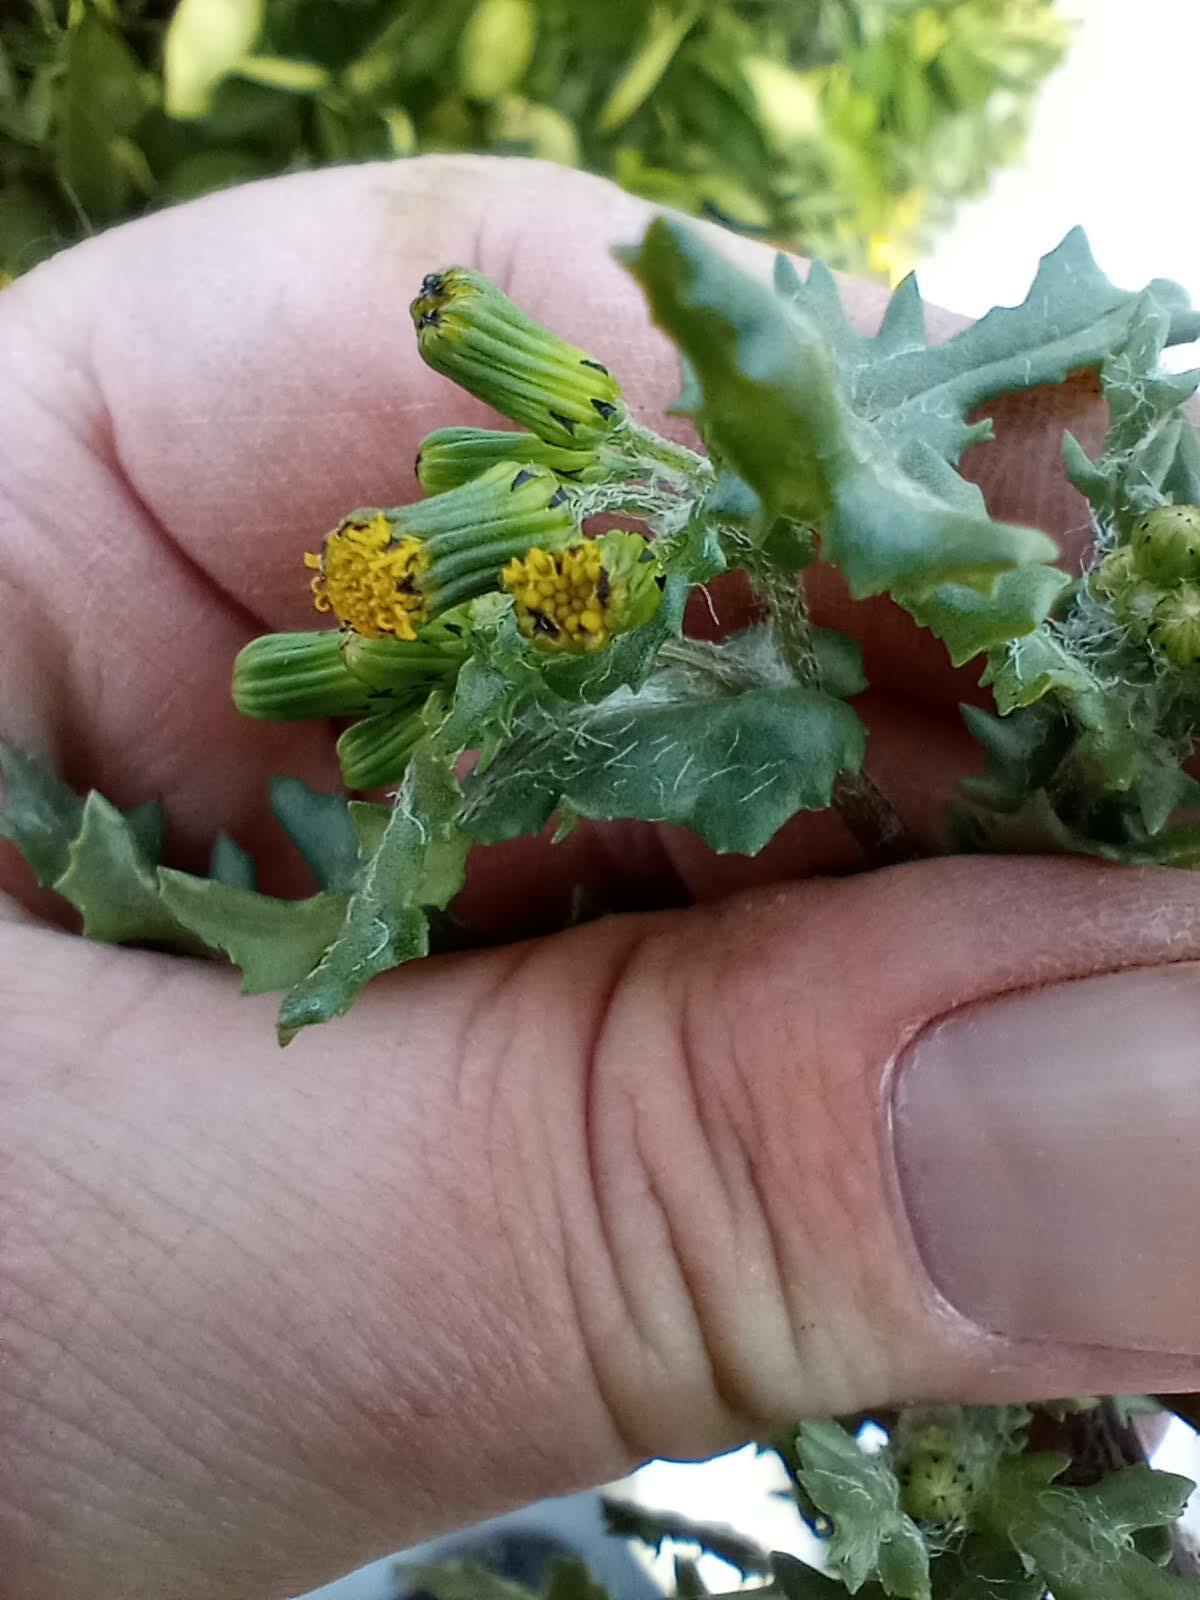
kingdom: Plantae
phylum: Tracheophyta
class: Magnoliopsida
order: Asterales
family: Asteraceae
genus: Senecio
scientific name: Senecio vulgaris
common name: Old-man-in-the-spring
